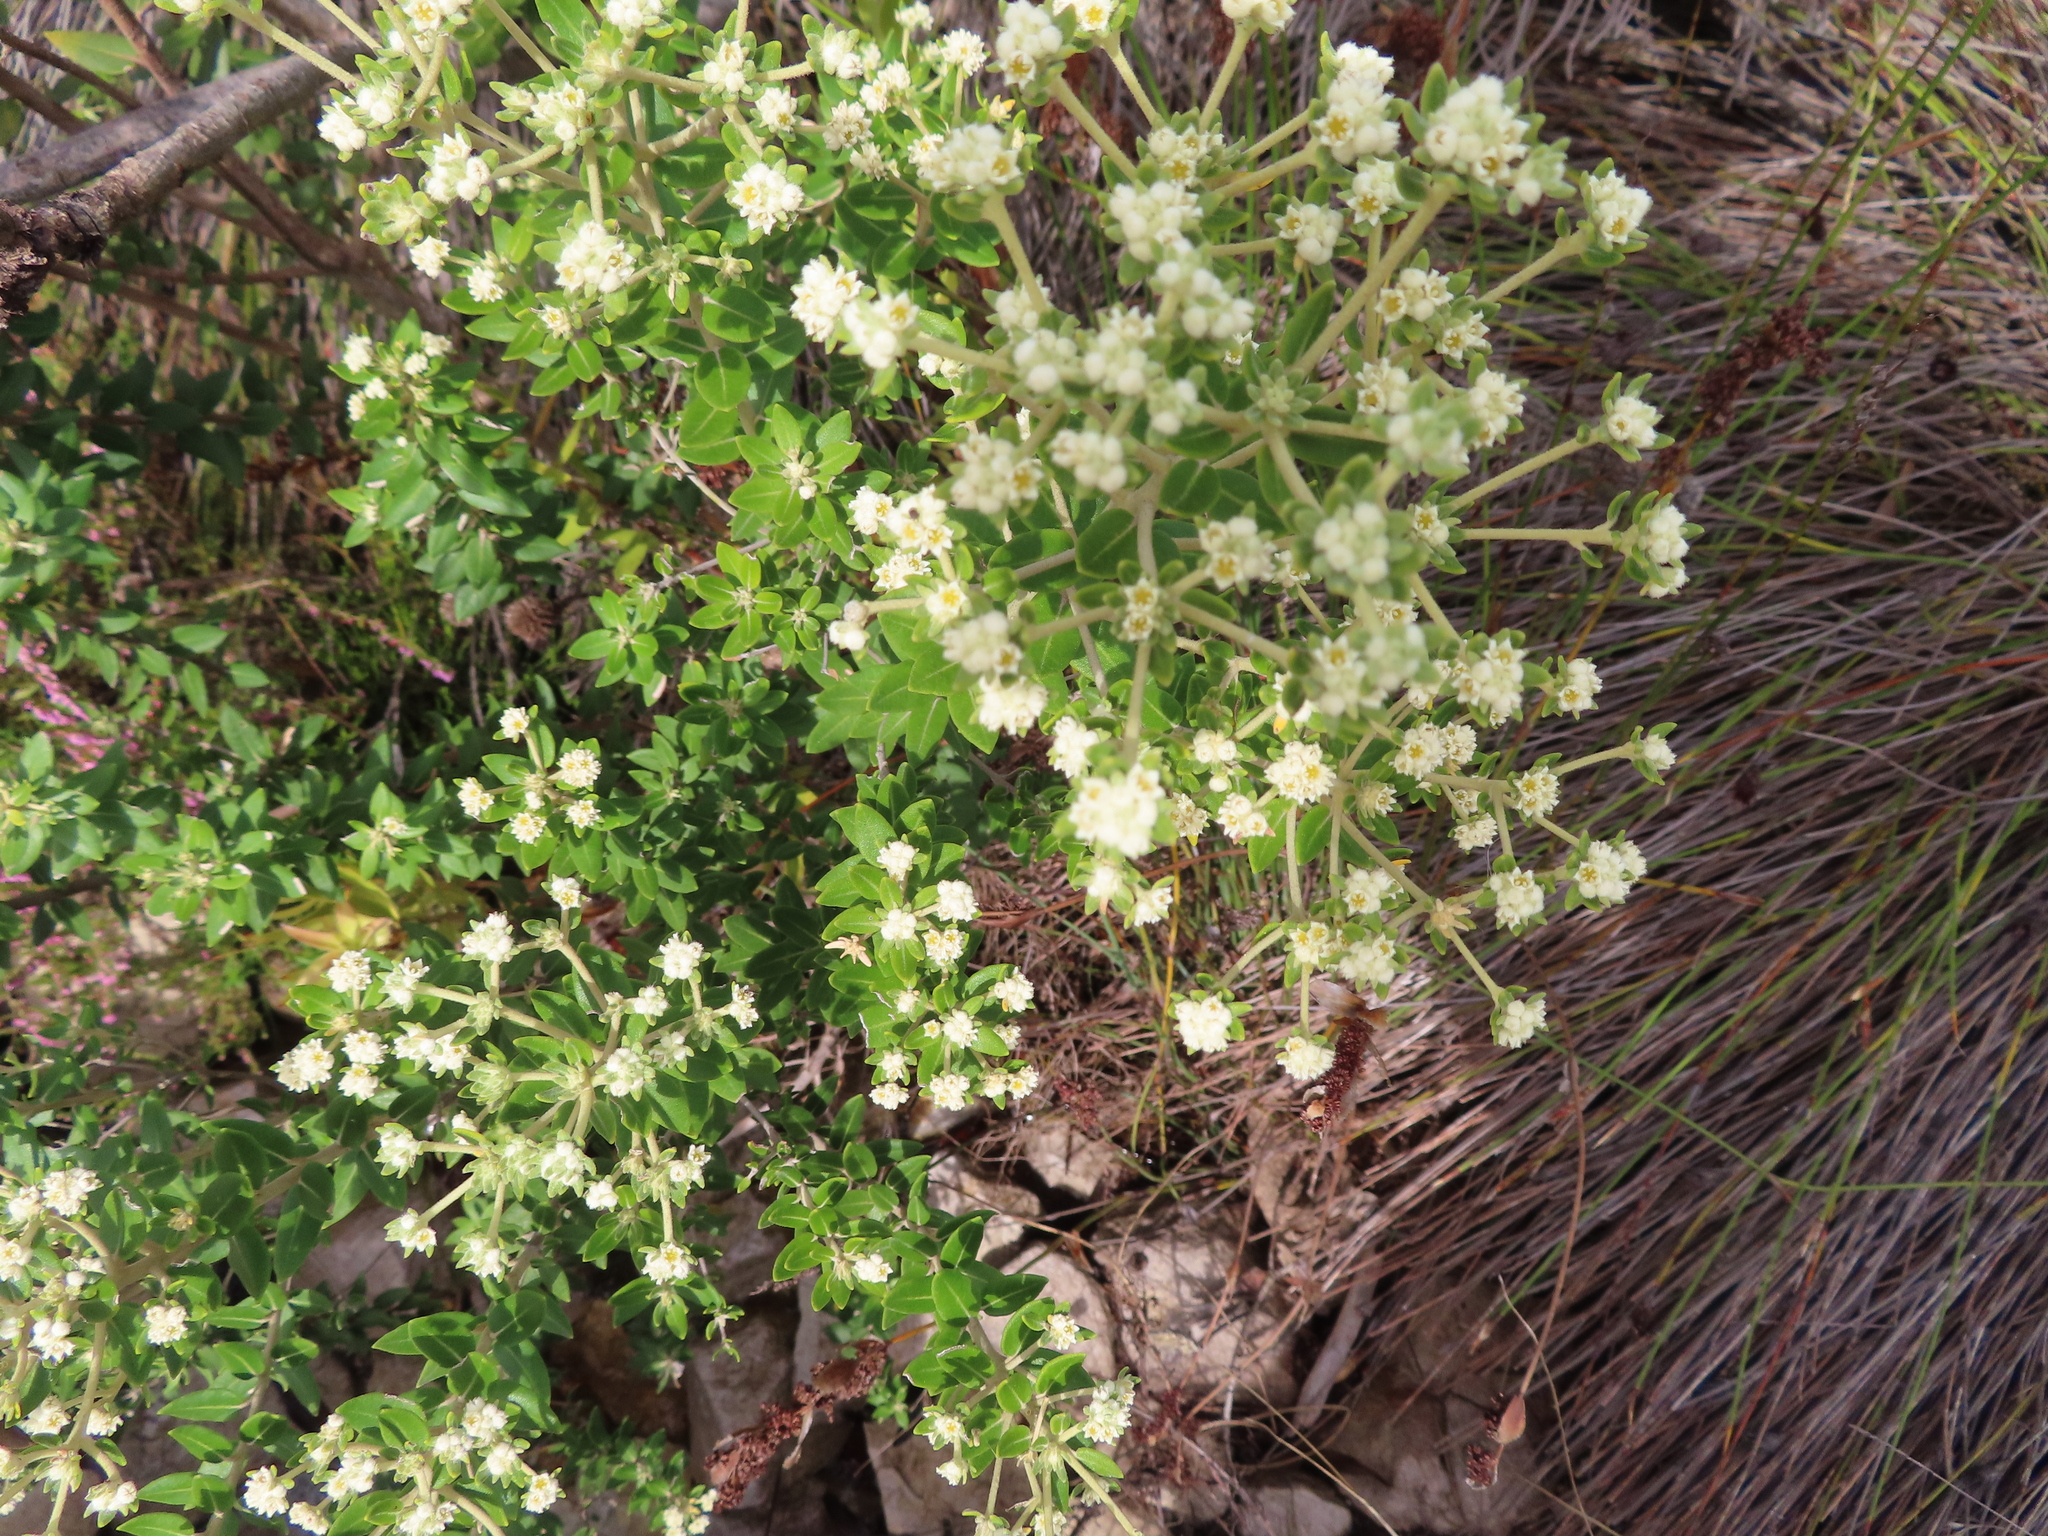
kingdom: Plantae
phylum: Tracheophyta
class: Magnoliopsida
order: Rosales
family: Rhamnaceae
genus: Phylica
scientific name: Phylica buxifolia
